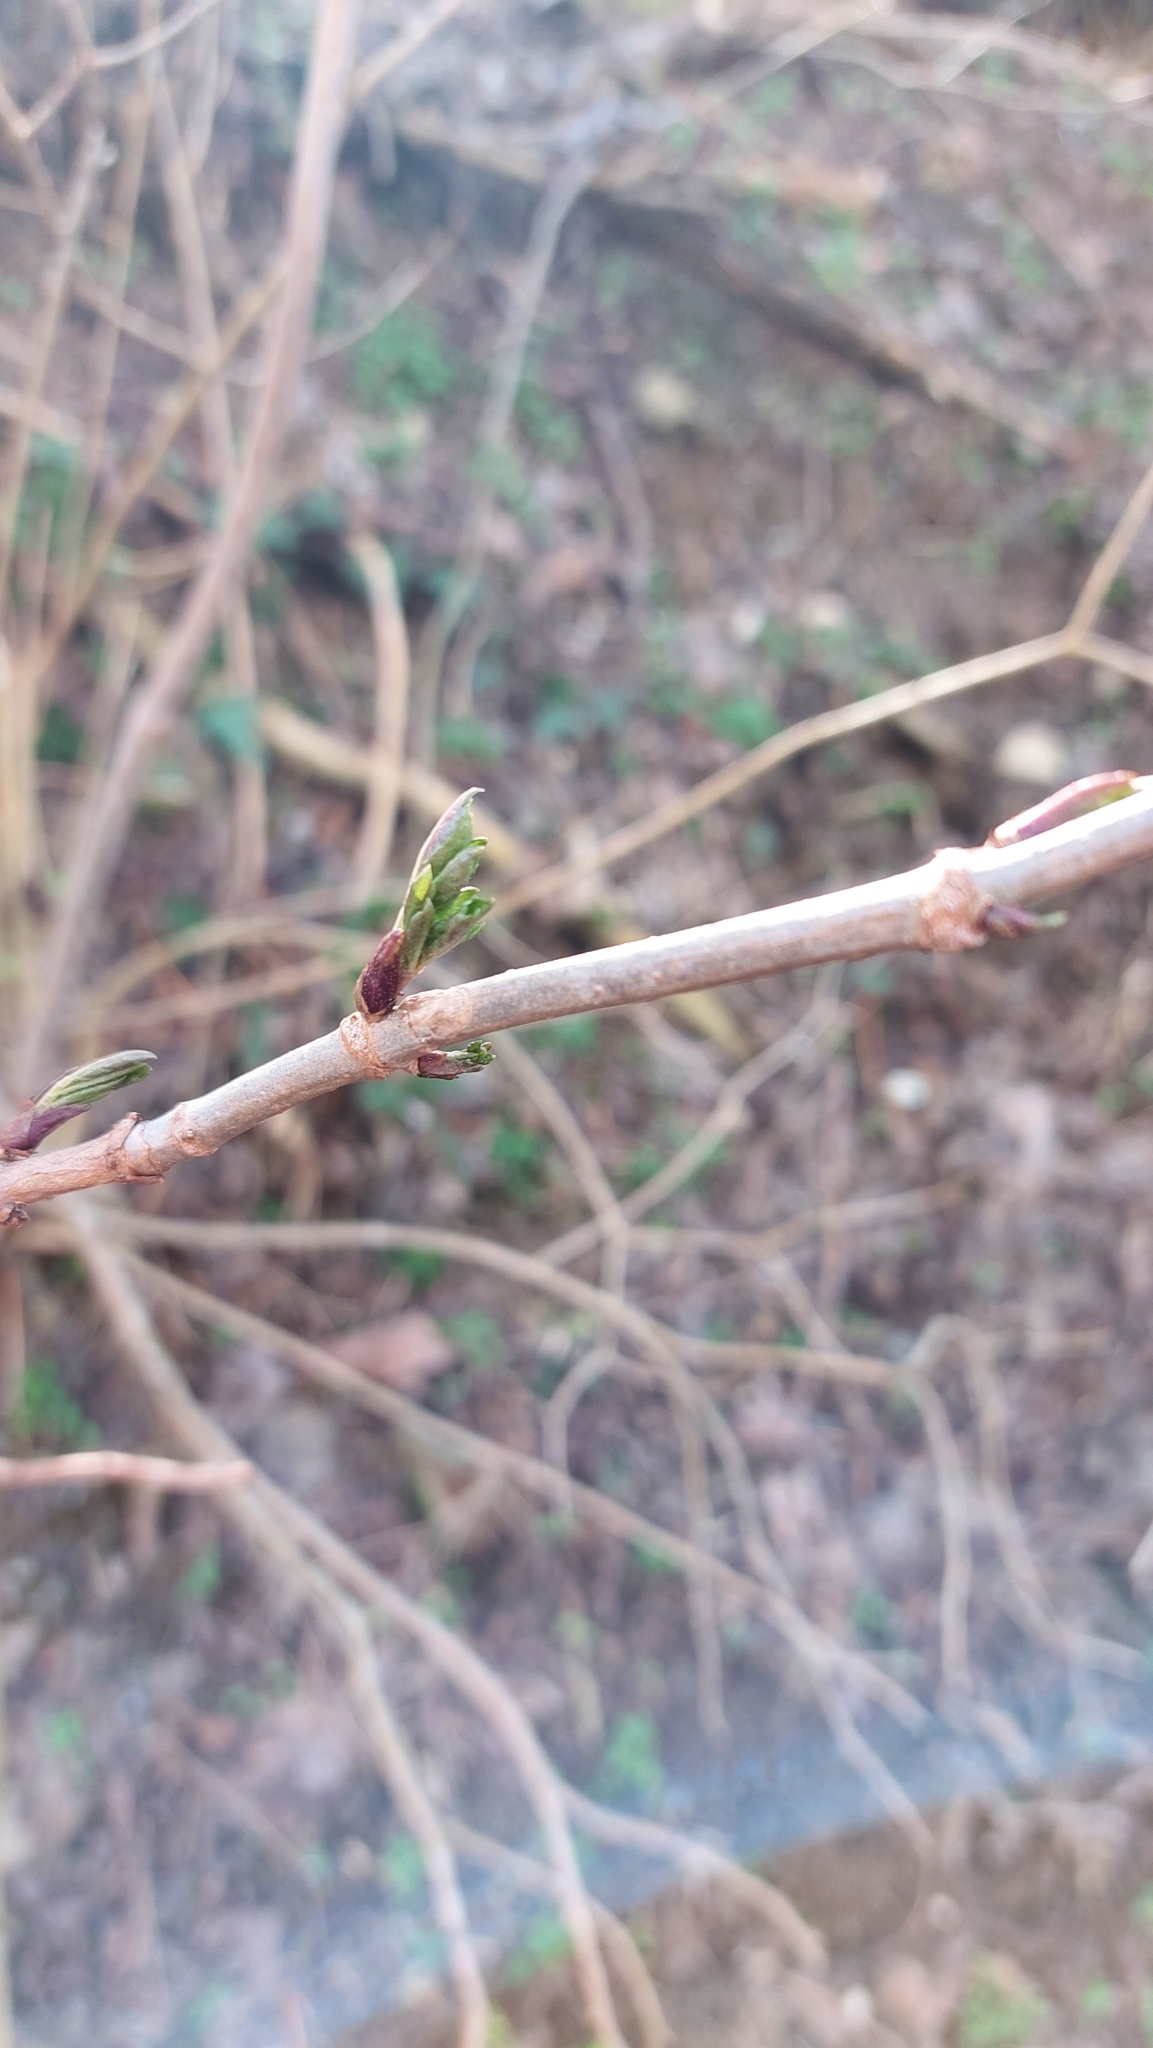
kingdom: Plantae
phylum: Tracheophyta
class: Magnoliopsida
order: Dipsacales
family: Viburnaceae
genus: Sambucus
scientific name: Sambucus nigra
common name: Elder
